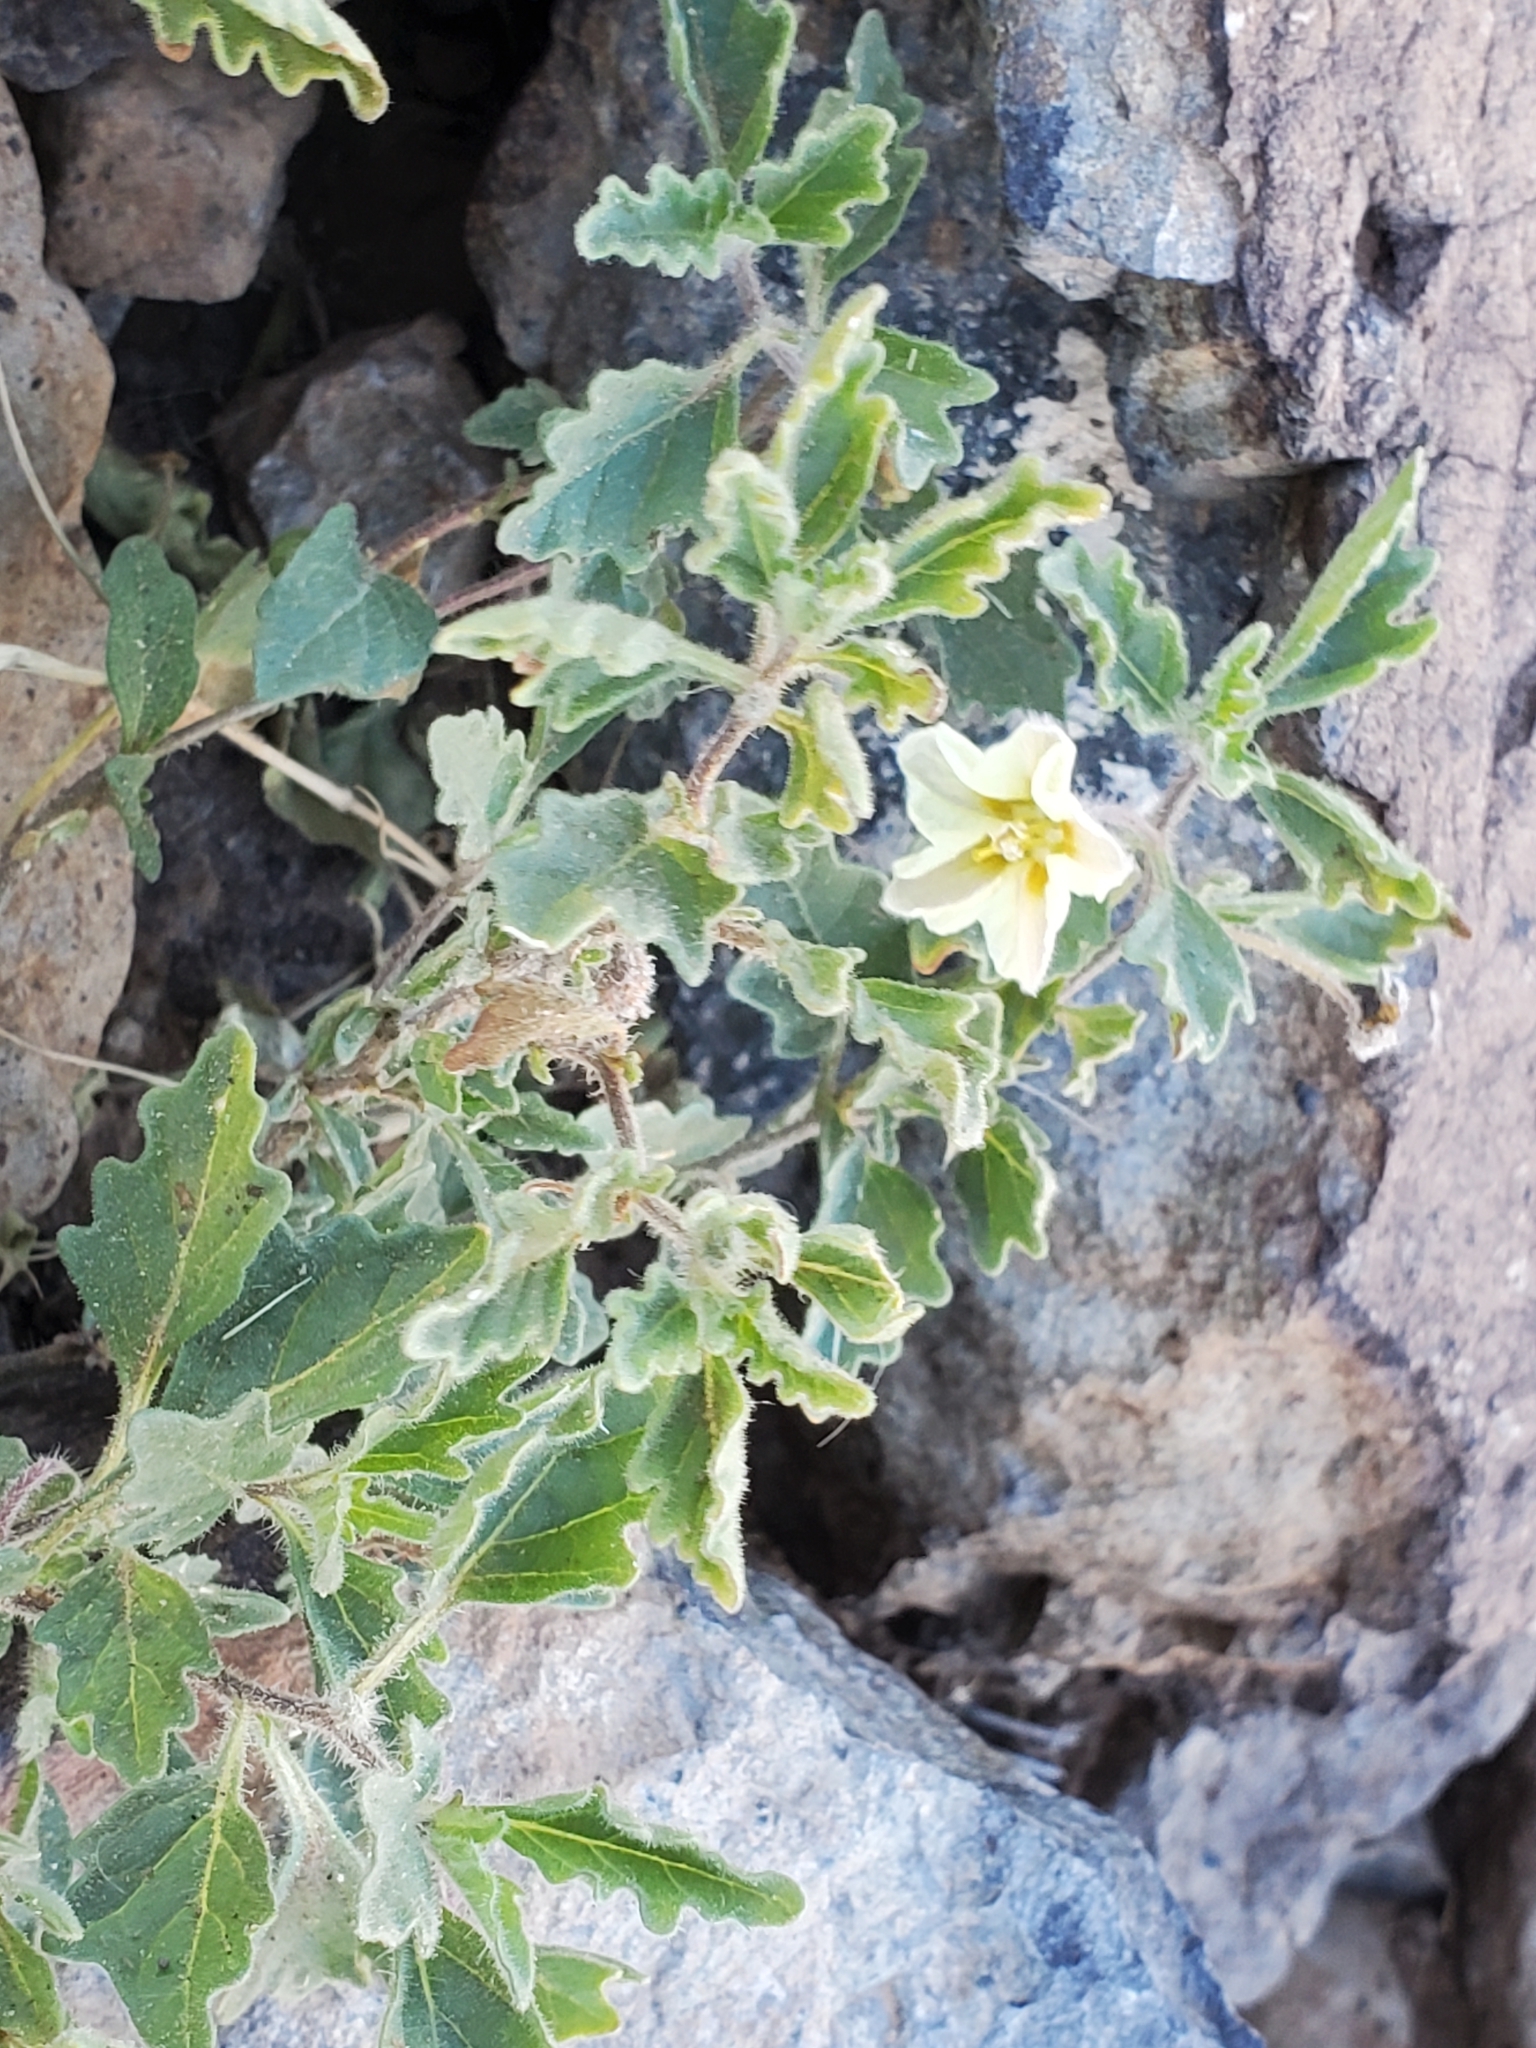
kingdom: Plantae
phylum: Tracheophyta
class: Magnoliopsida
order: Solanales
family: Solanaceae
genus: Chamaesaracha
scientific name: Chamaesaracha sordida
